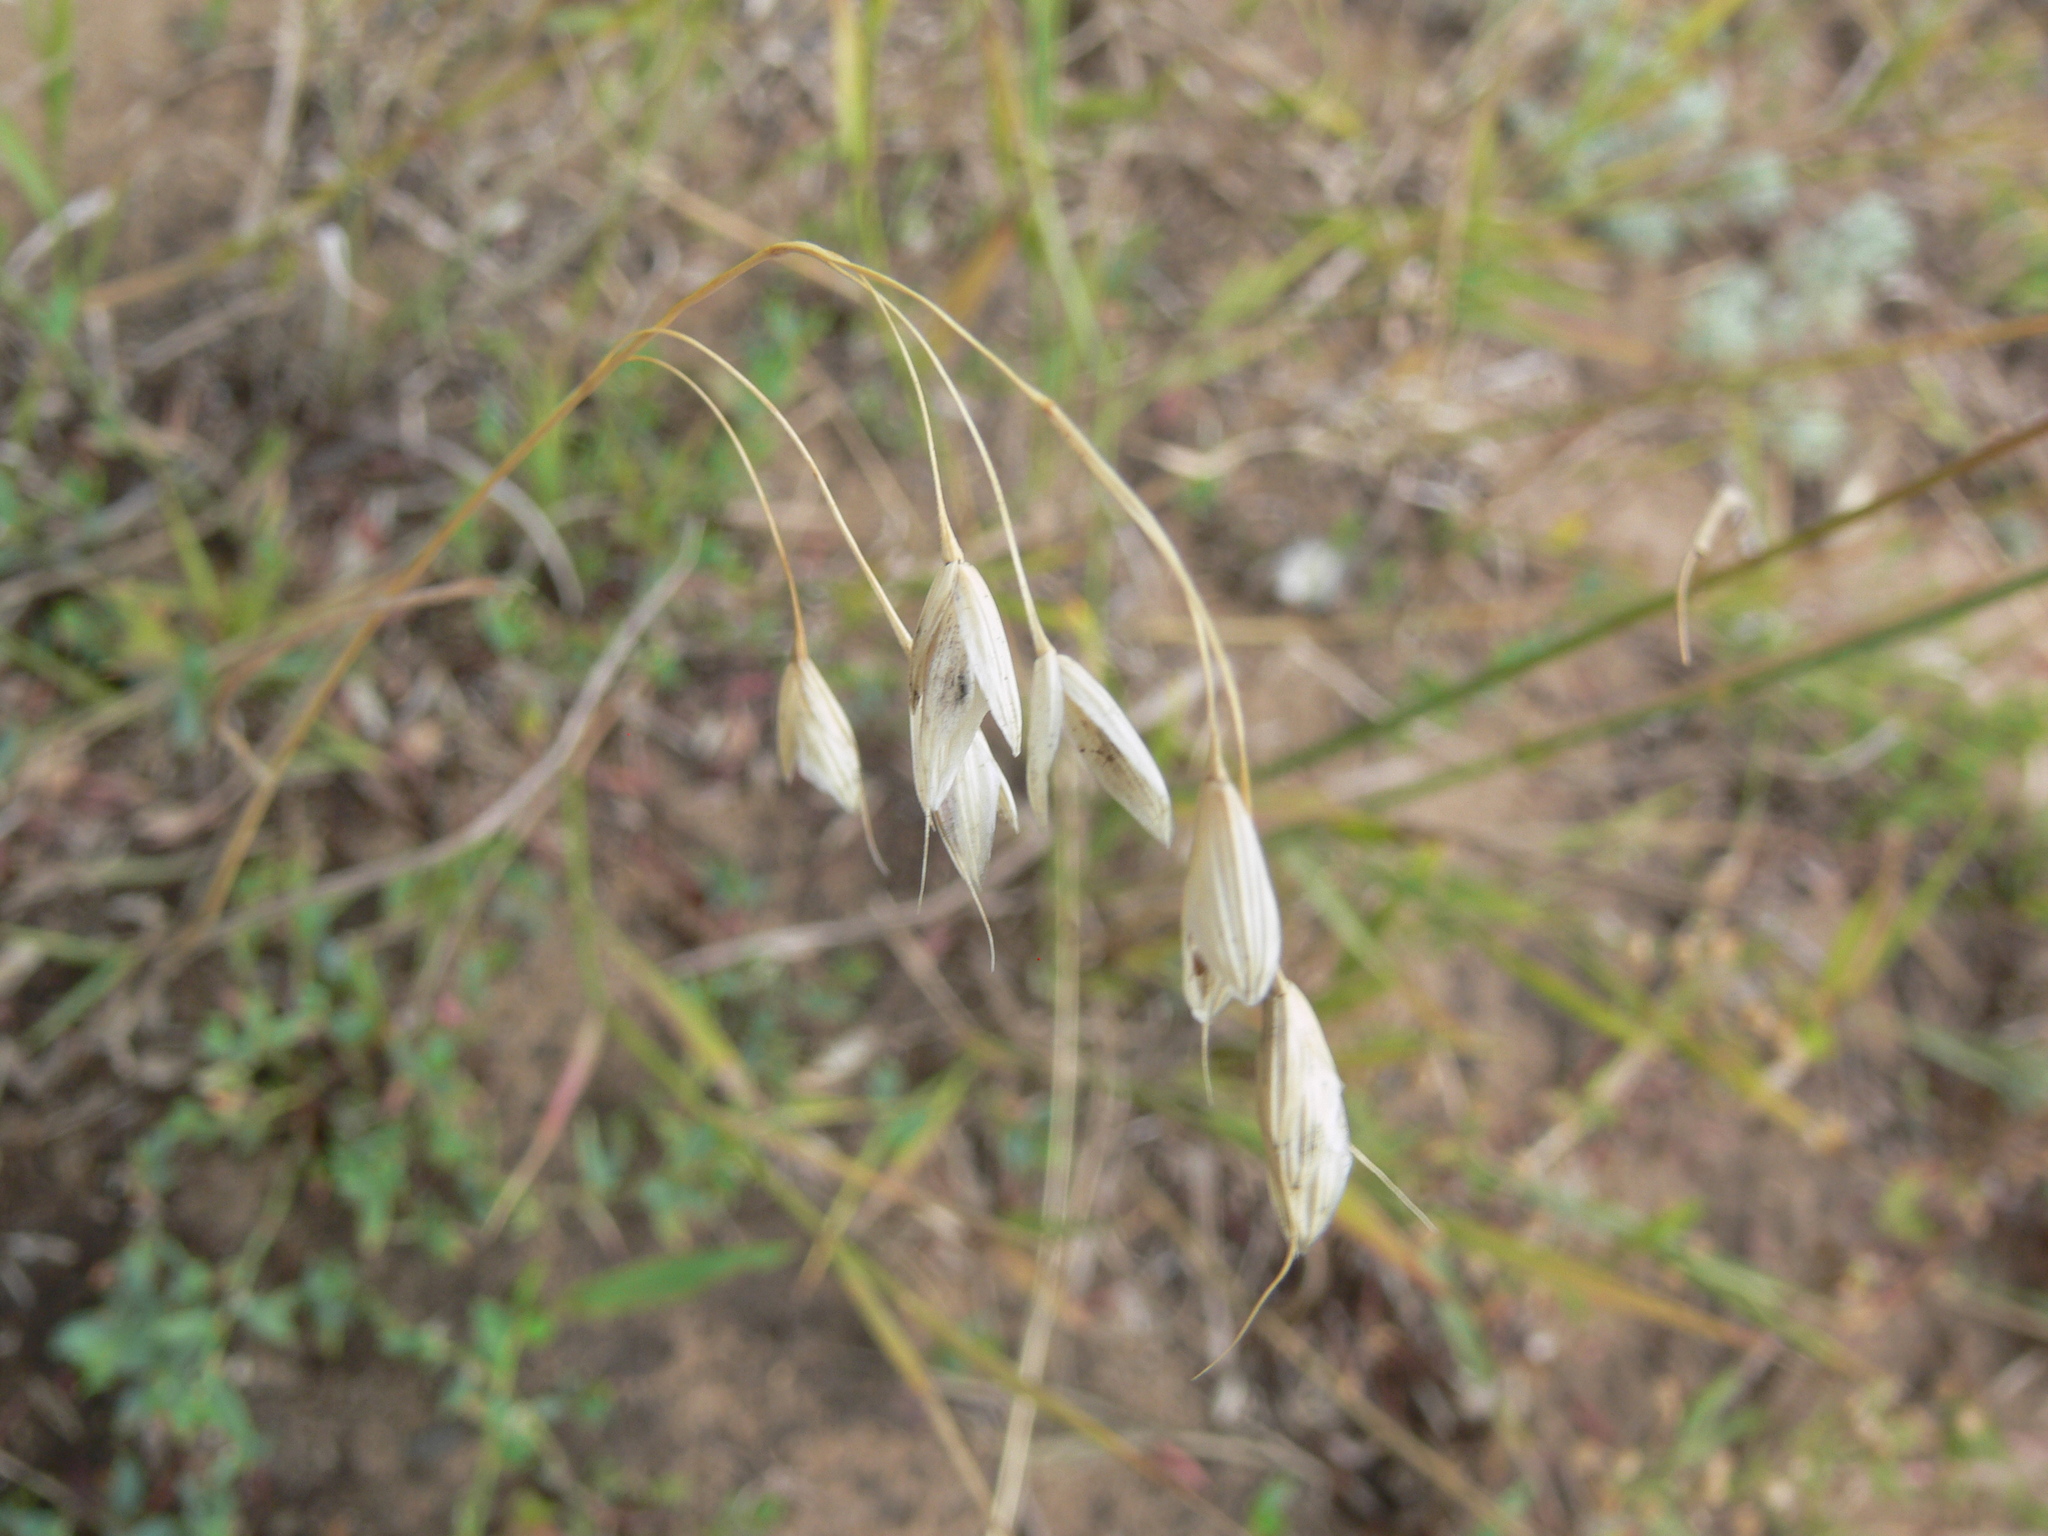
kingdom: Plantae
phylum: Tracheophyta
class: Liliopsida
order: Poales
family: Poaceae
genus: Avena
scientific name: Avena fatua
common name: Wild oat
